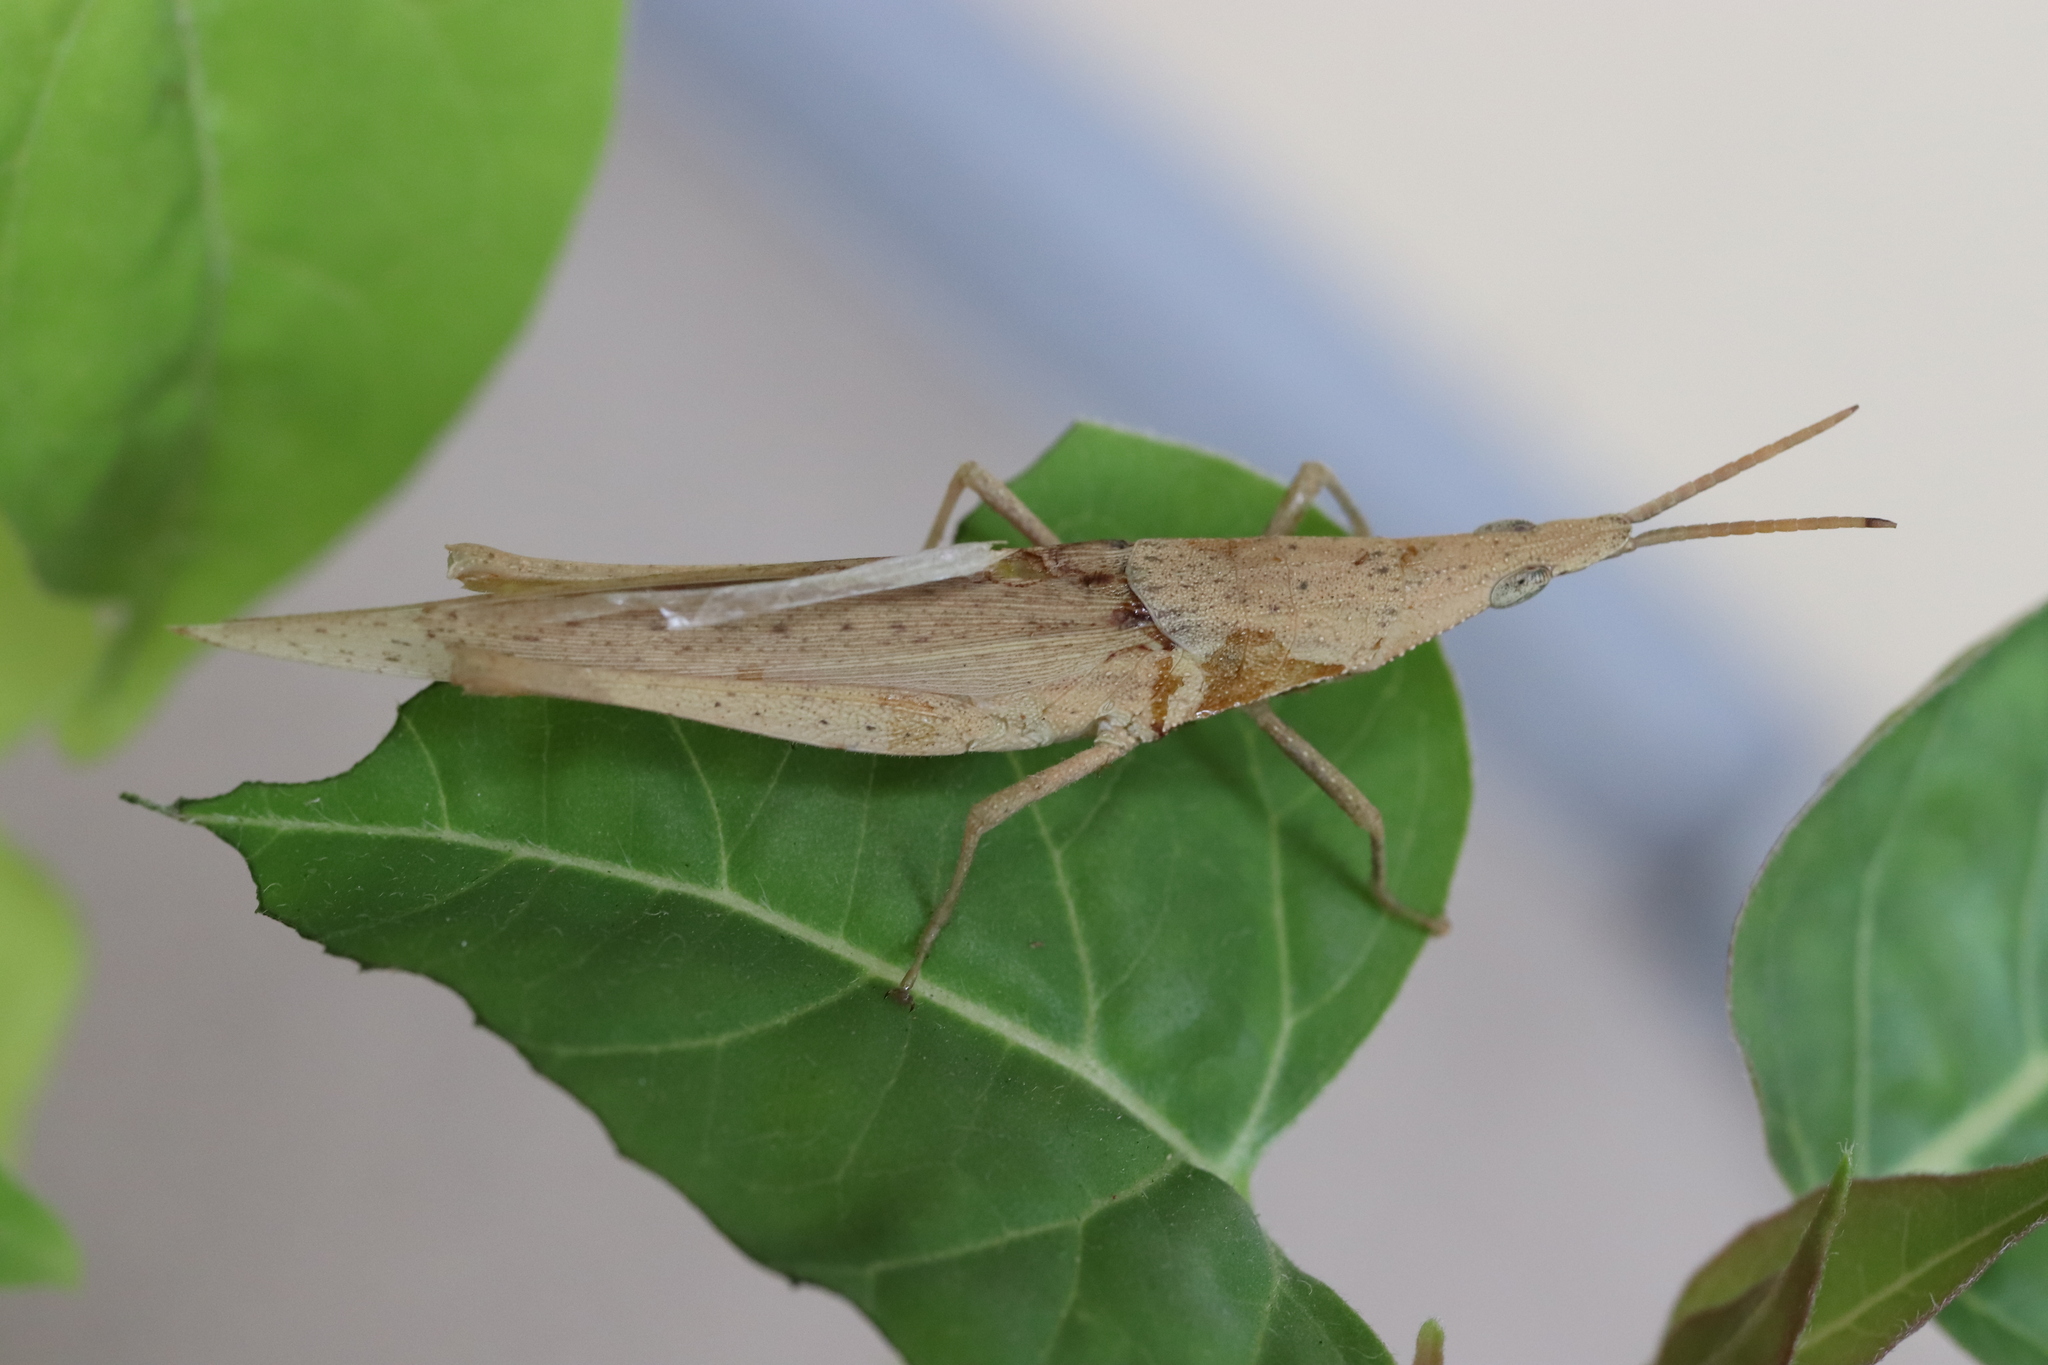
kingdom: Animalia
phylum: Arthropoda
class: Insecta
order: Orthoptera
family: Pyrgomorphidae
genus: Atractomorpha
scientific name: Atractomorpha lata
